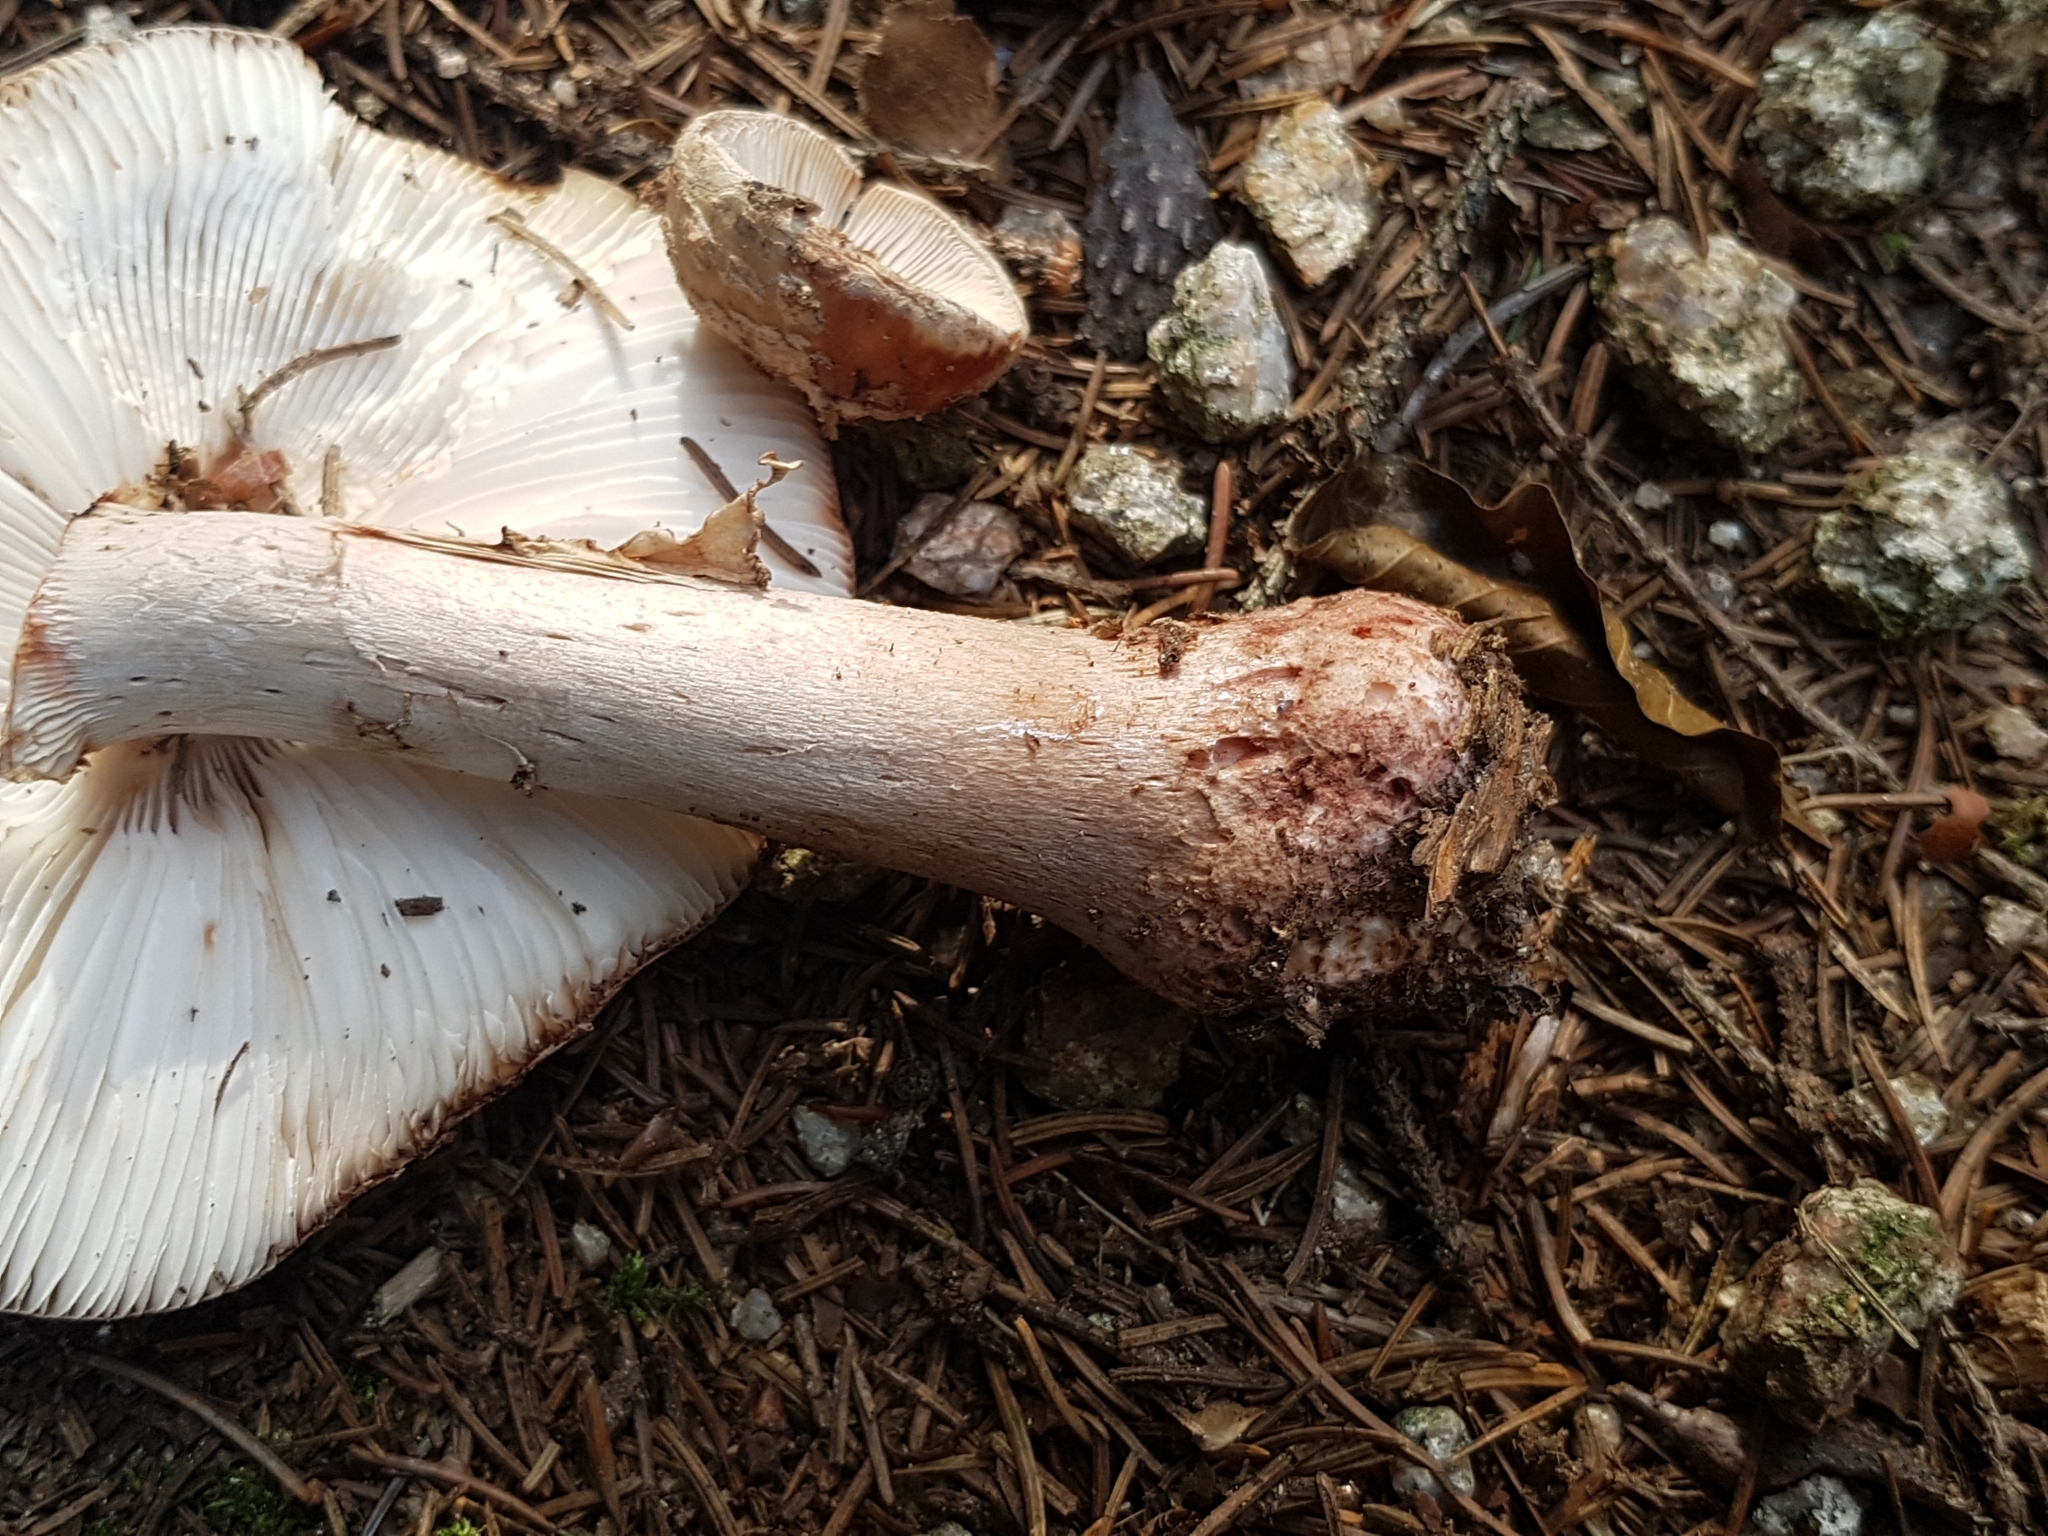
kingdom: Fungi
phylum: Basidiomycota
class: Agaricomycetes
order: Agaricales
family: Amanitaceae
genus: Amanita
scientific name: Amanita rubescens
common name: Blusher
